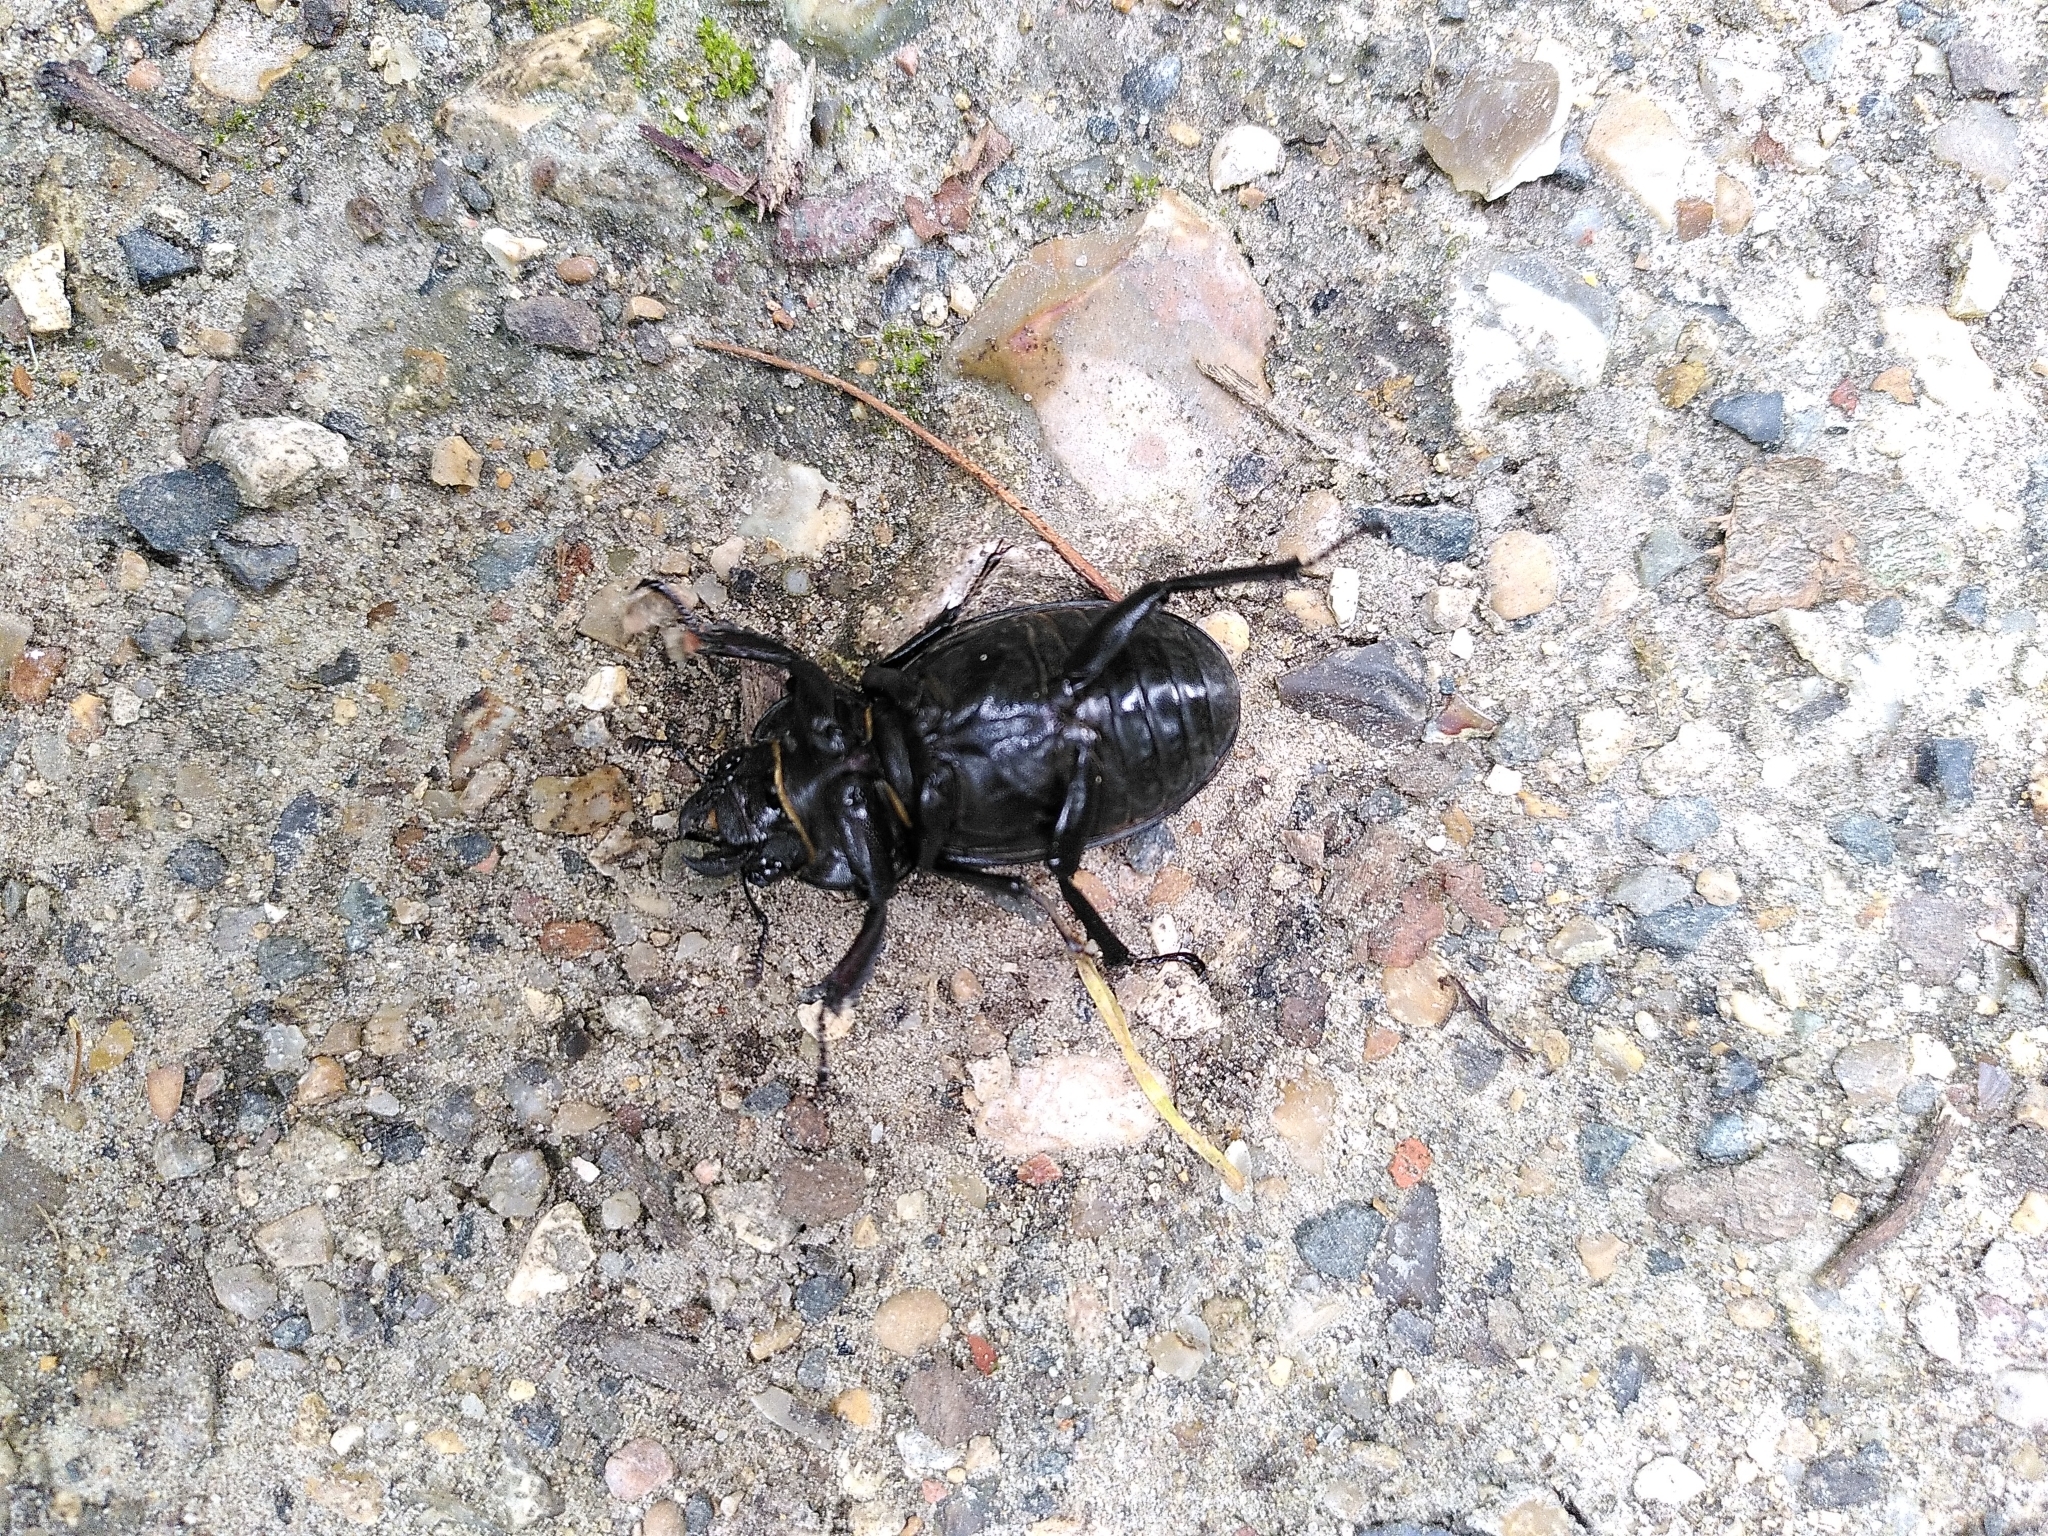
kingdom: Animalia
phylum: Arthropoda
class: Insecta
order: Coleoptera
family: Lucanidae
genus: Lucanus
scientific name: Lucanus cervus
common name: Stag beetle
